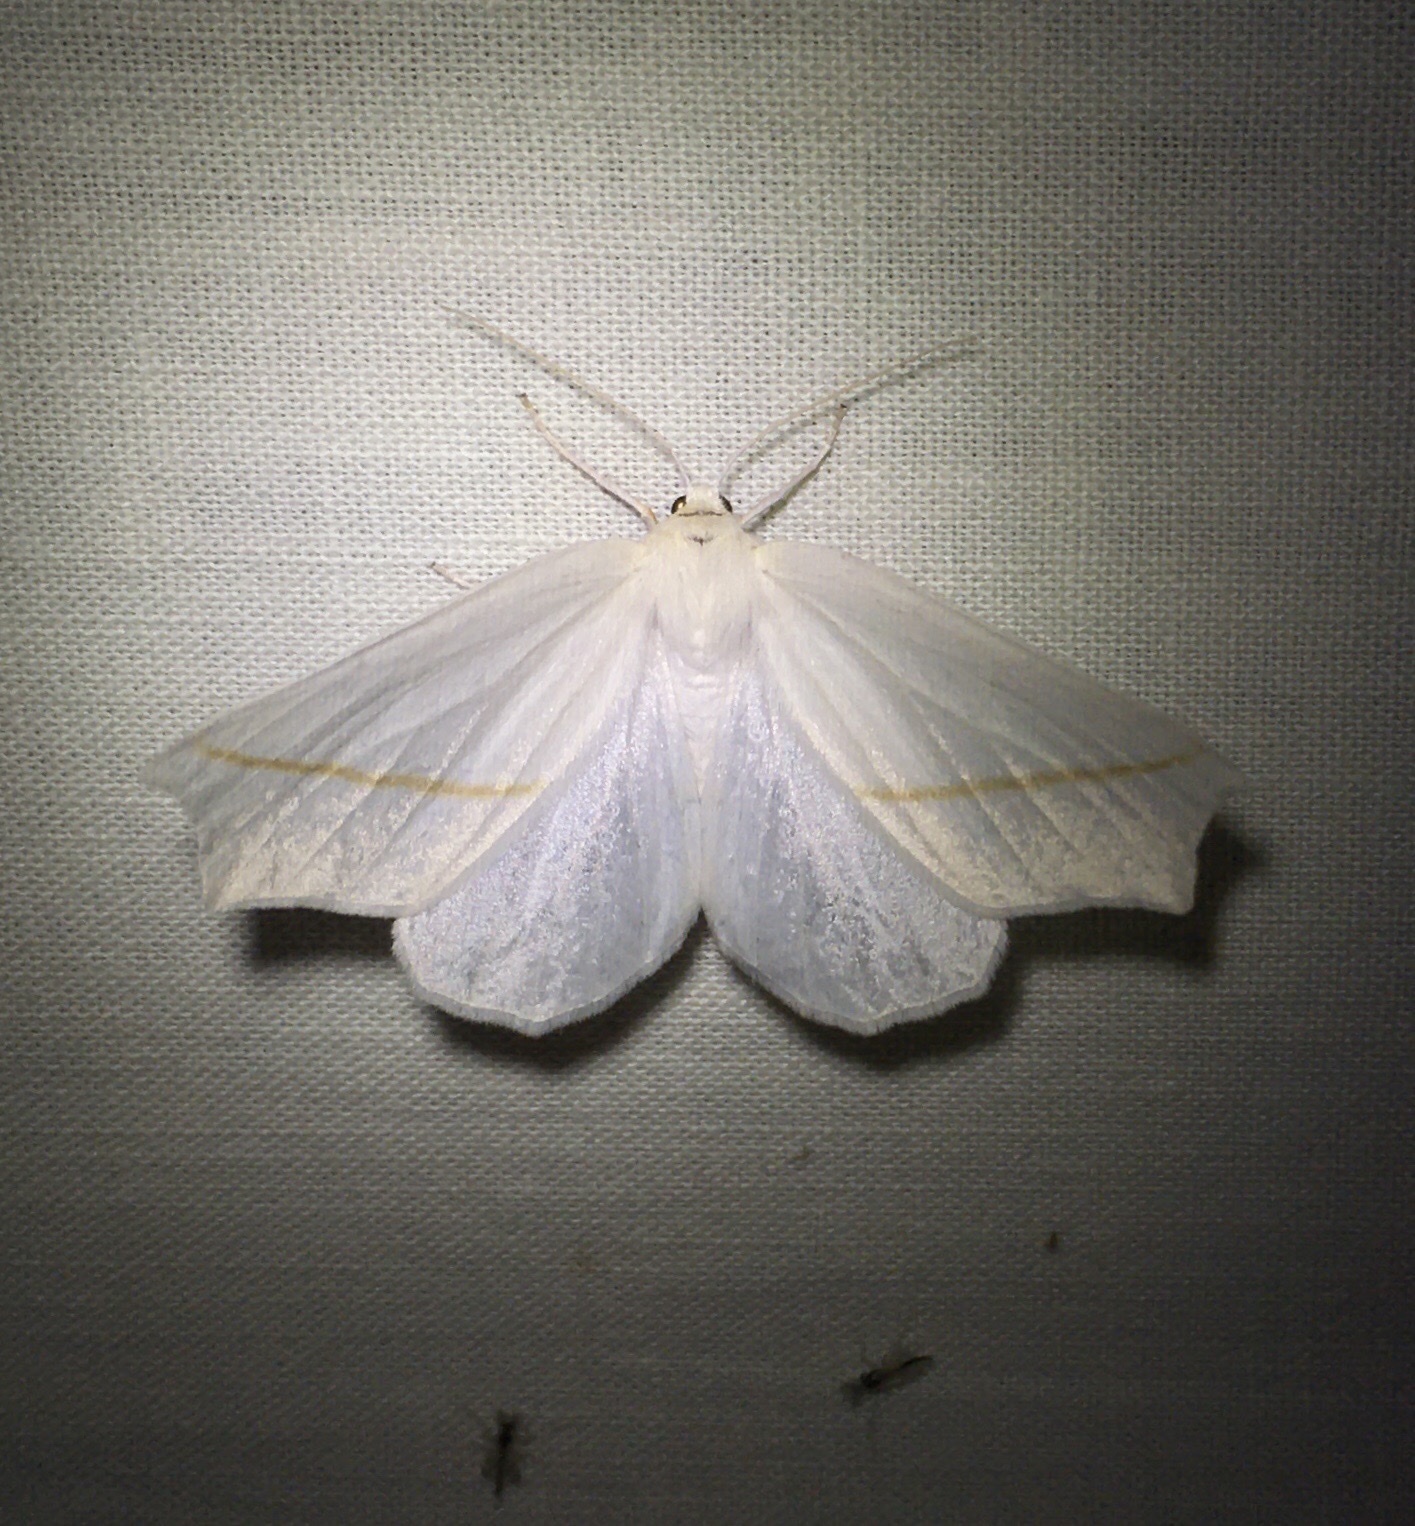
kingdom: Animalia
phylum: Arthropoda
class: Insecta
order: Lepidoptera
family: Geometridae
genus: Tetracis
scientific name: Tetracis cachexiata
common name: White slant-line
